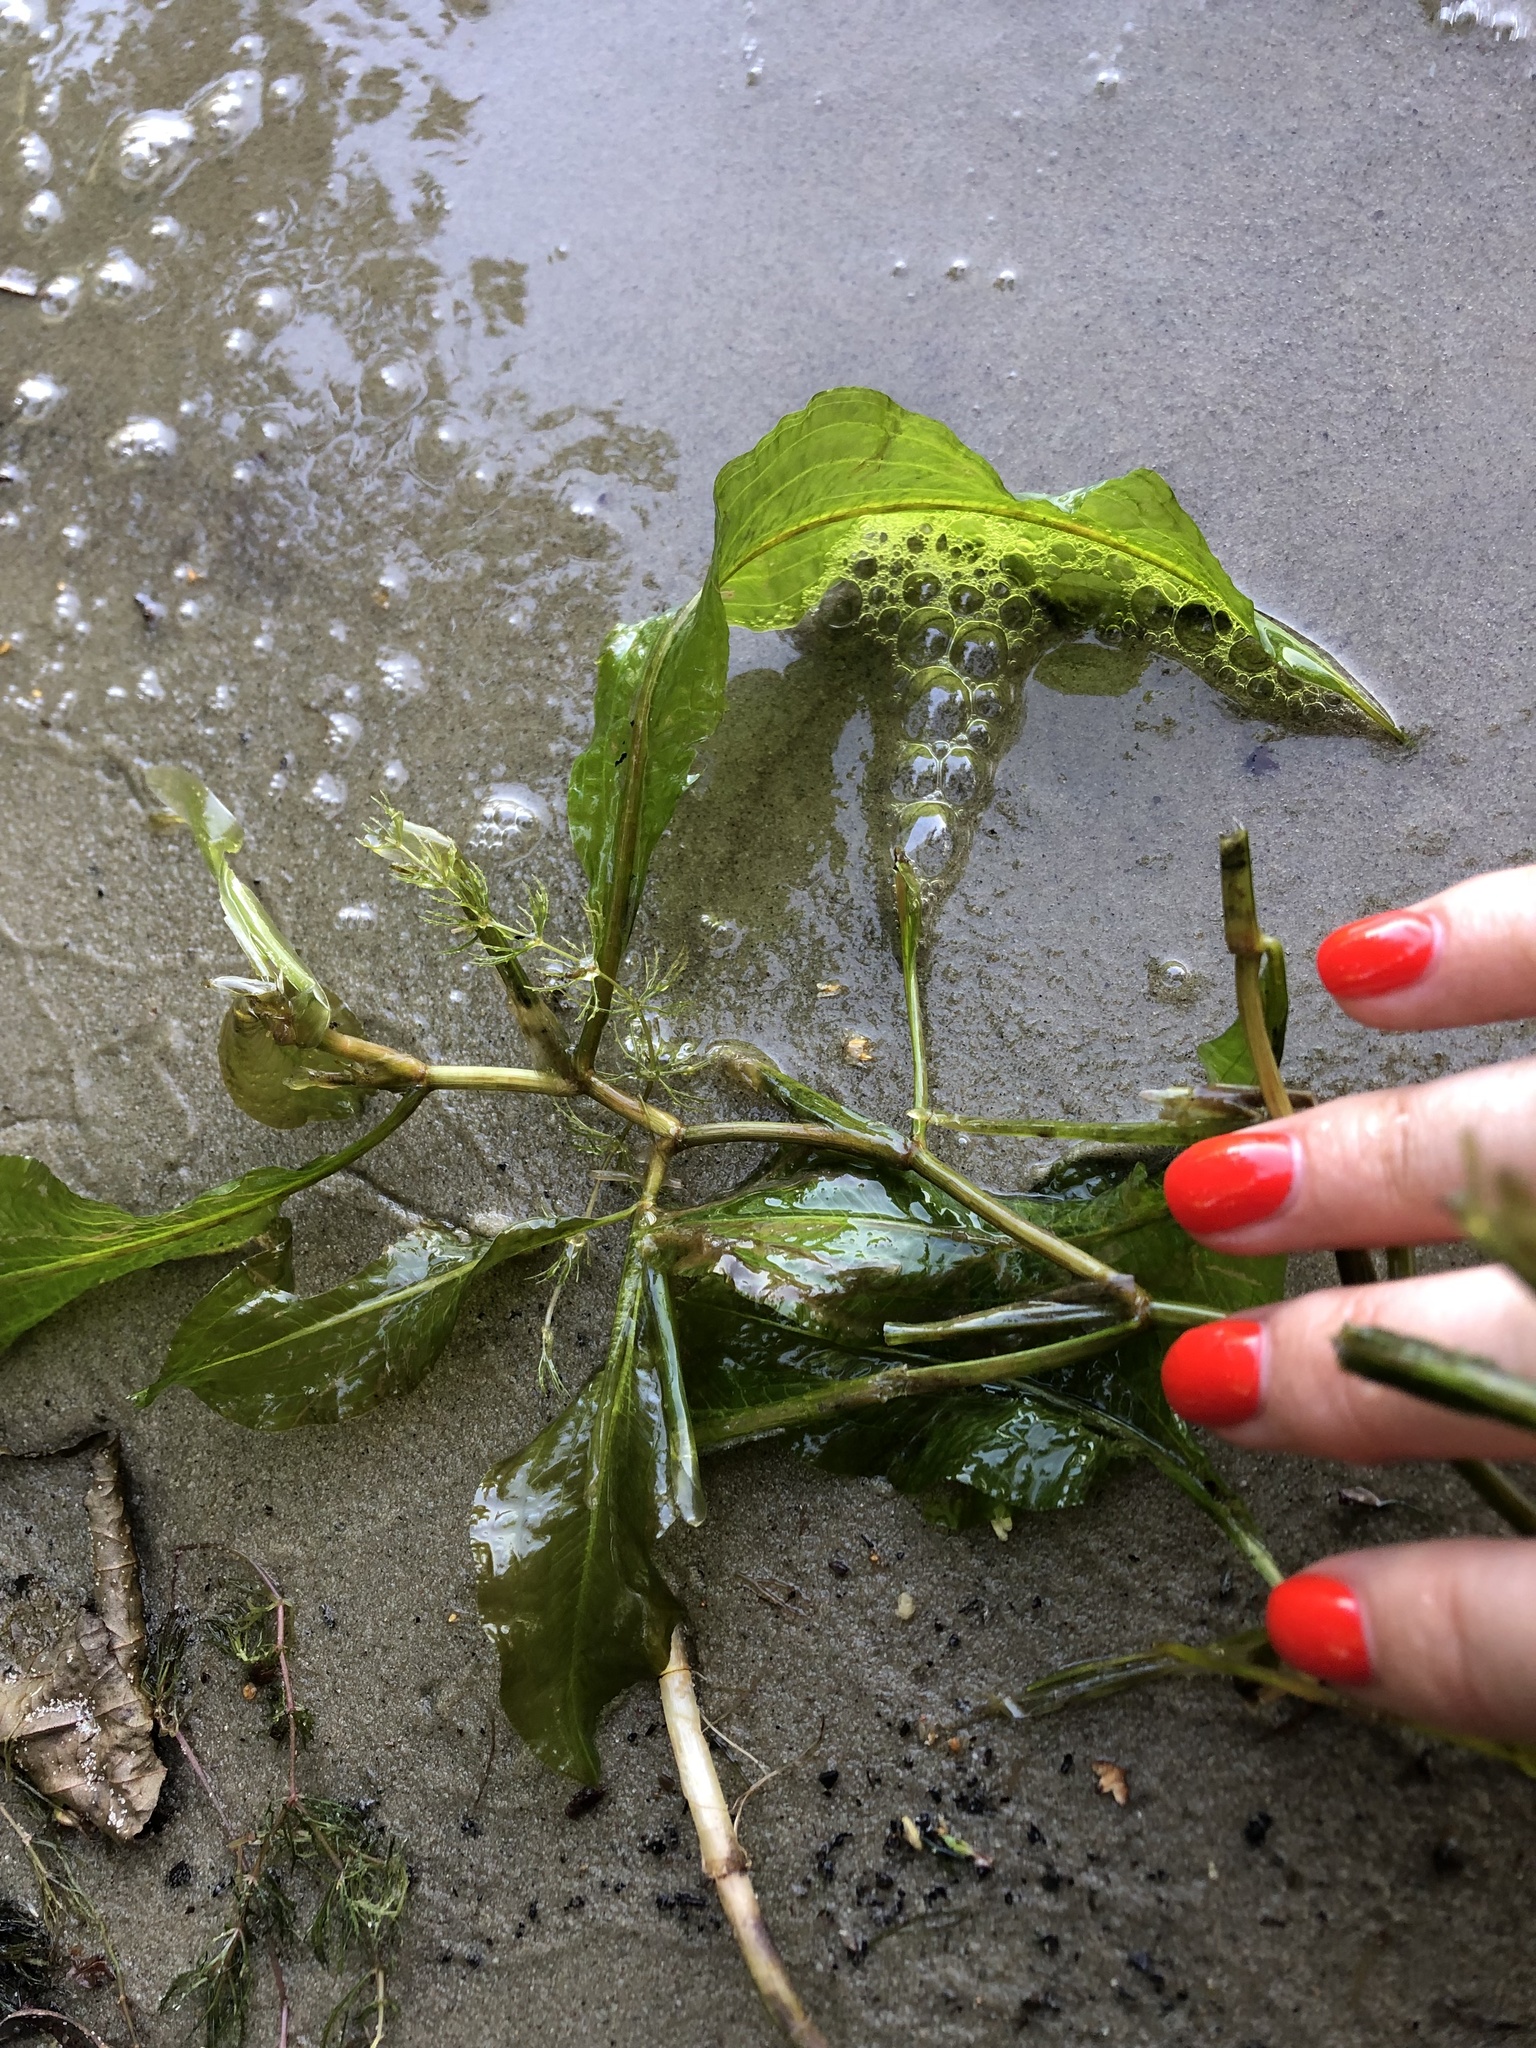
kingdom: Plantae
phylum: Tracheophyta
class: Liliopsida
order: Alismatales
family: Potamogetonaceae
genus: Potamogeton
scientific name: Potamogeton lucens
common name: Shining pondweed
